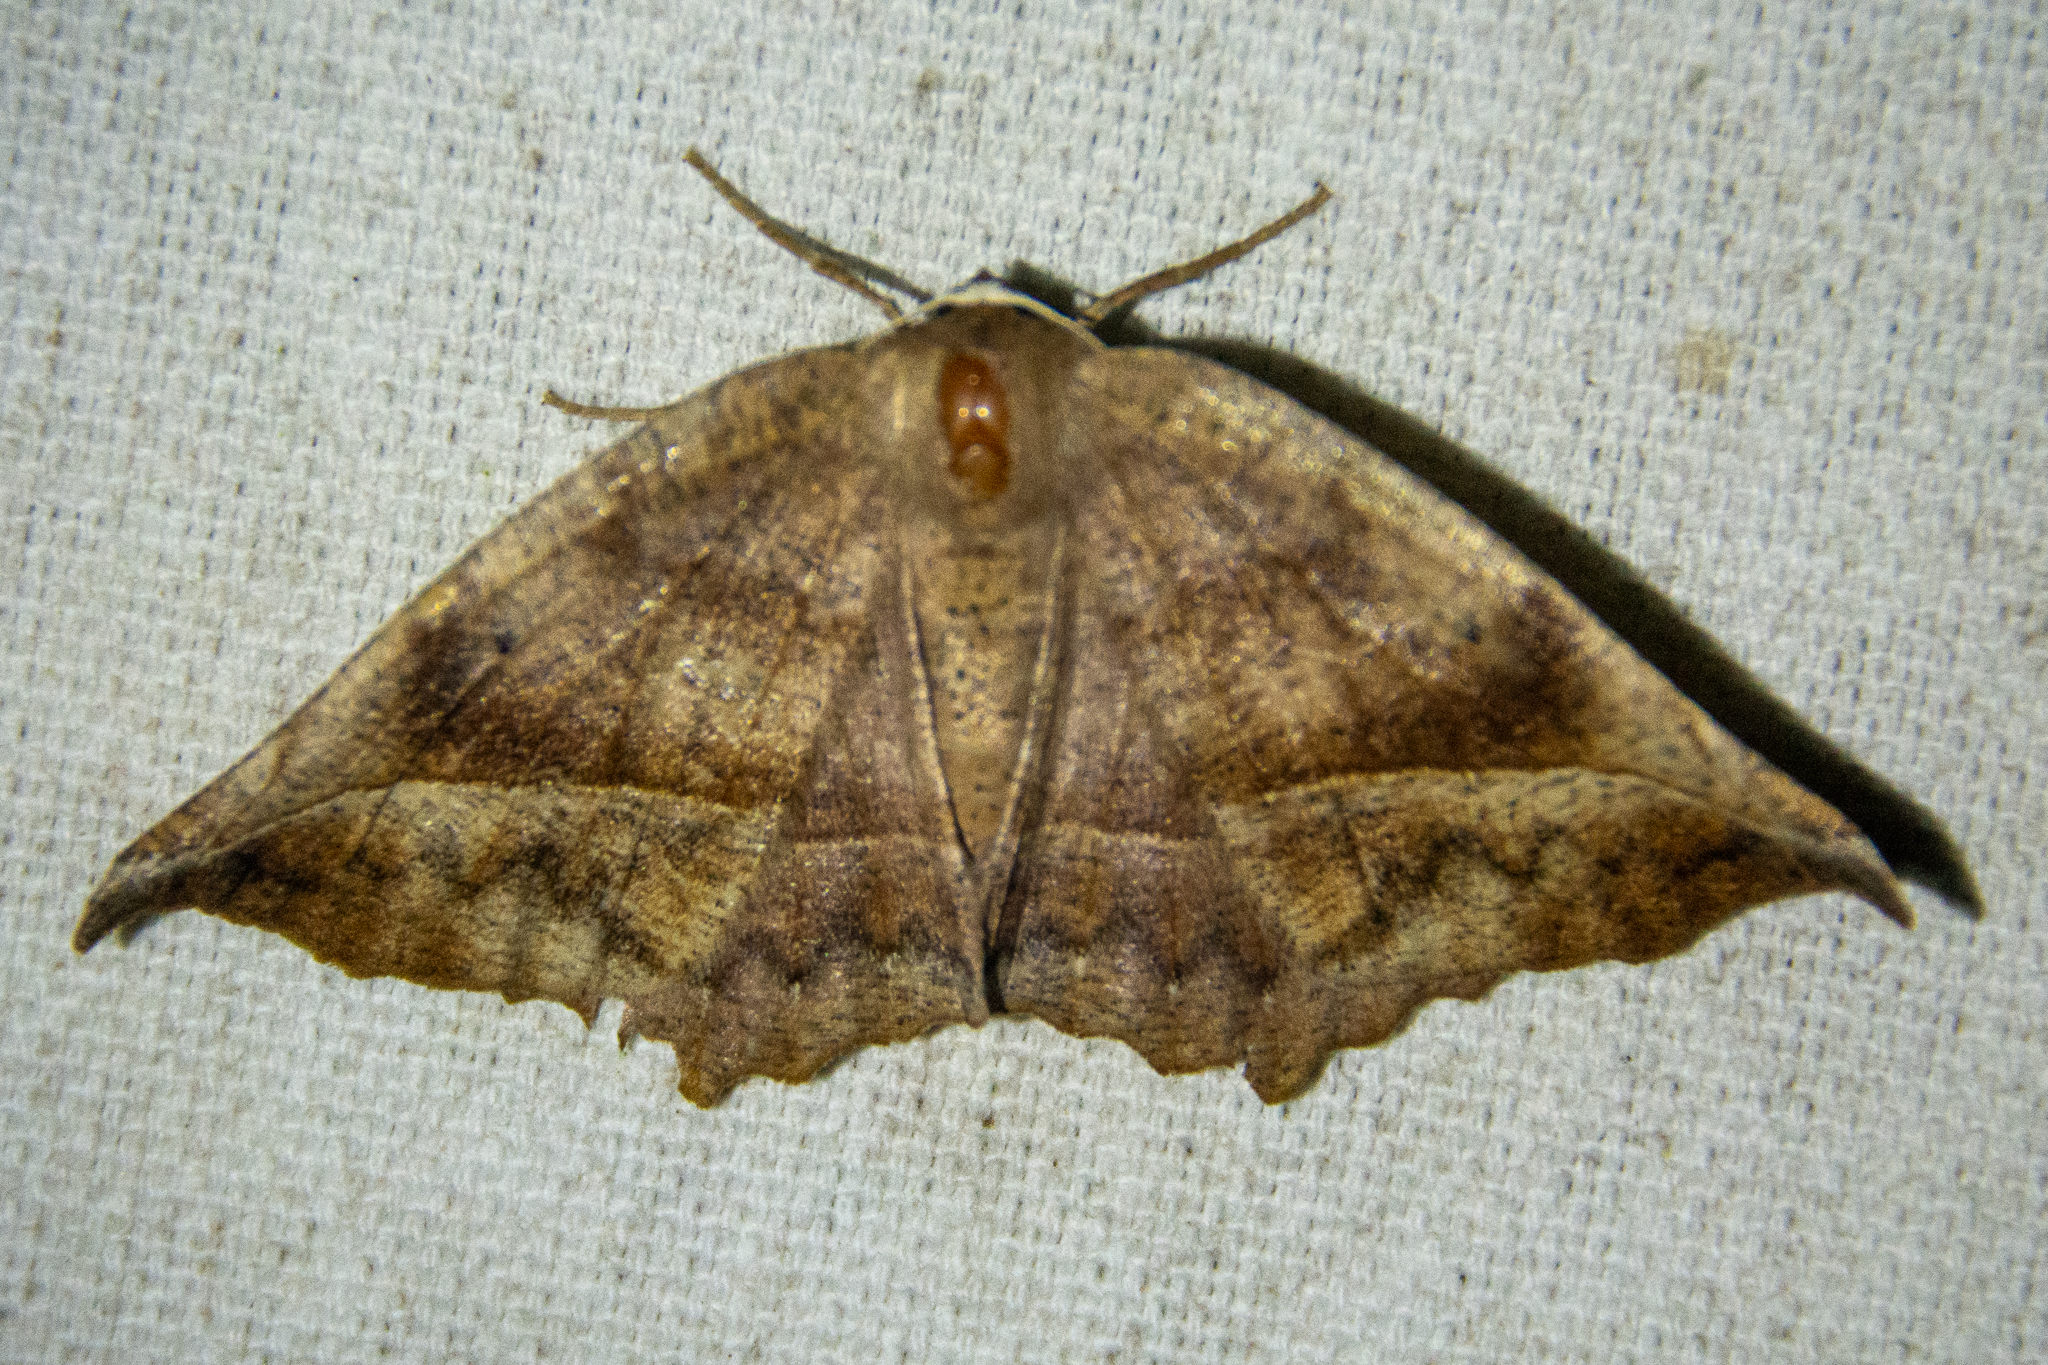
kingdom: Animalia
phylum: Arthropoda
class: Insecta
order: Lepidoptera
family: Geometridae
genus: Eutrapela
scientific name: Eutrapela clemataria
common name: Curved-toothed geometer
